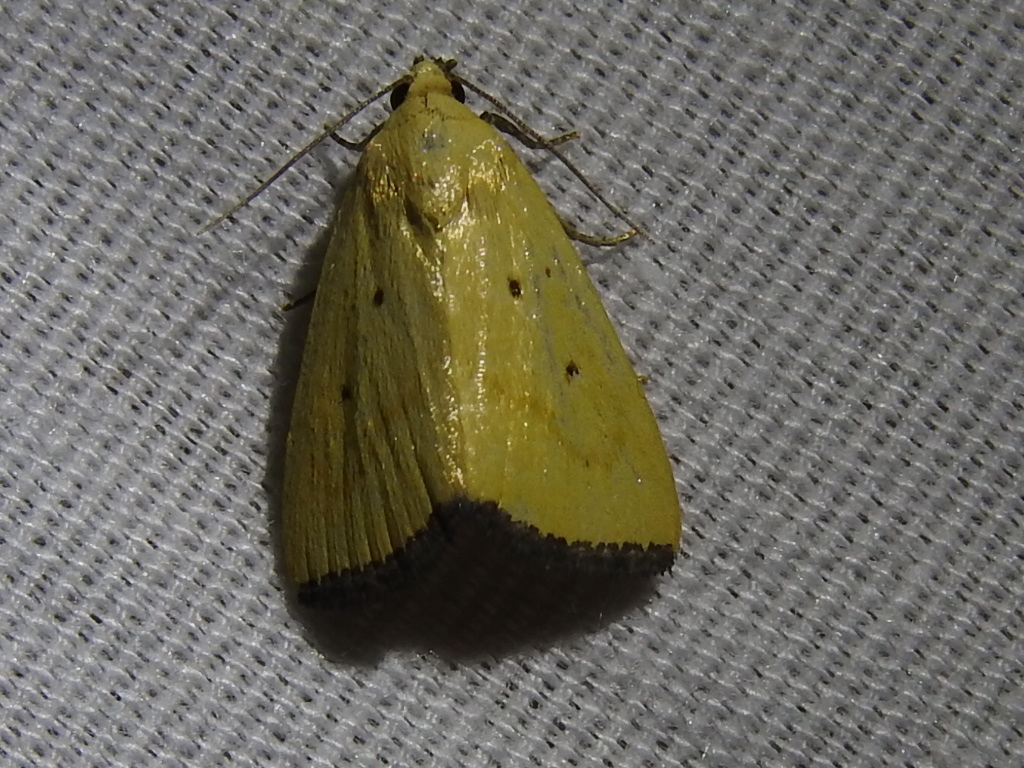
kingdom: Animalia
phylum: Arthropoda
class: Insecta
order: Lepidoptera
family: Noctuidae
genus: Marimatha
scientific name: Marimatha piscimala
